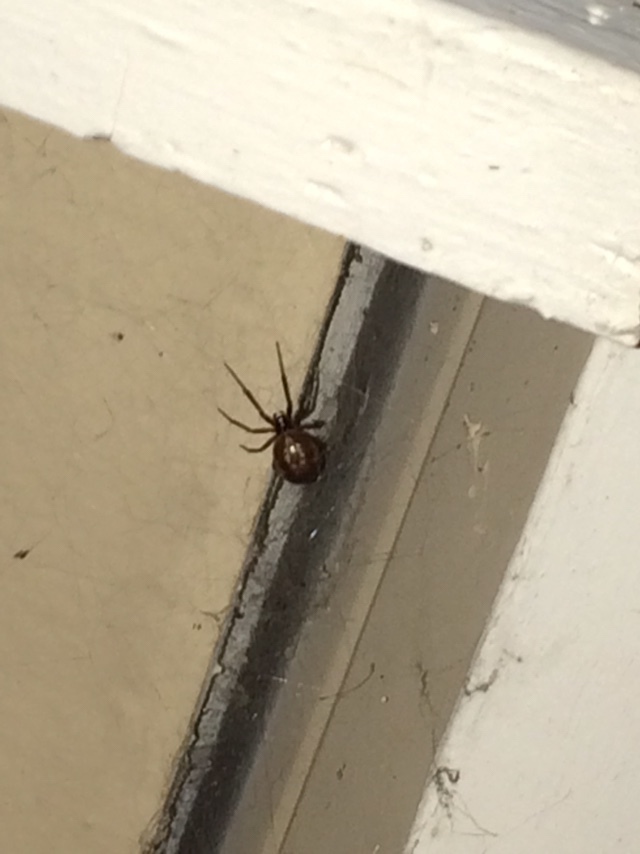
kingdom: Animalia
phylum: Arthropoda
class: Arachnida
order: Araneae
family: Theridiidae
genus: Steatoda
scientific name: Steatoda nobilis
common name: Cobweb weaver
